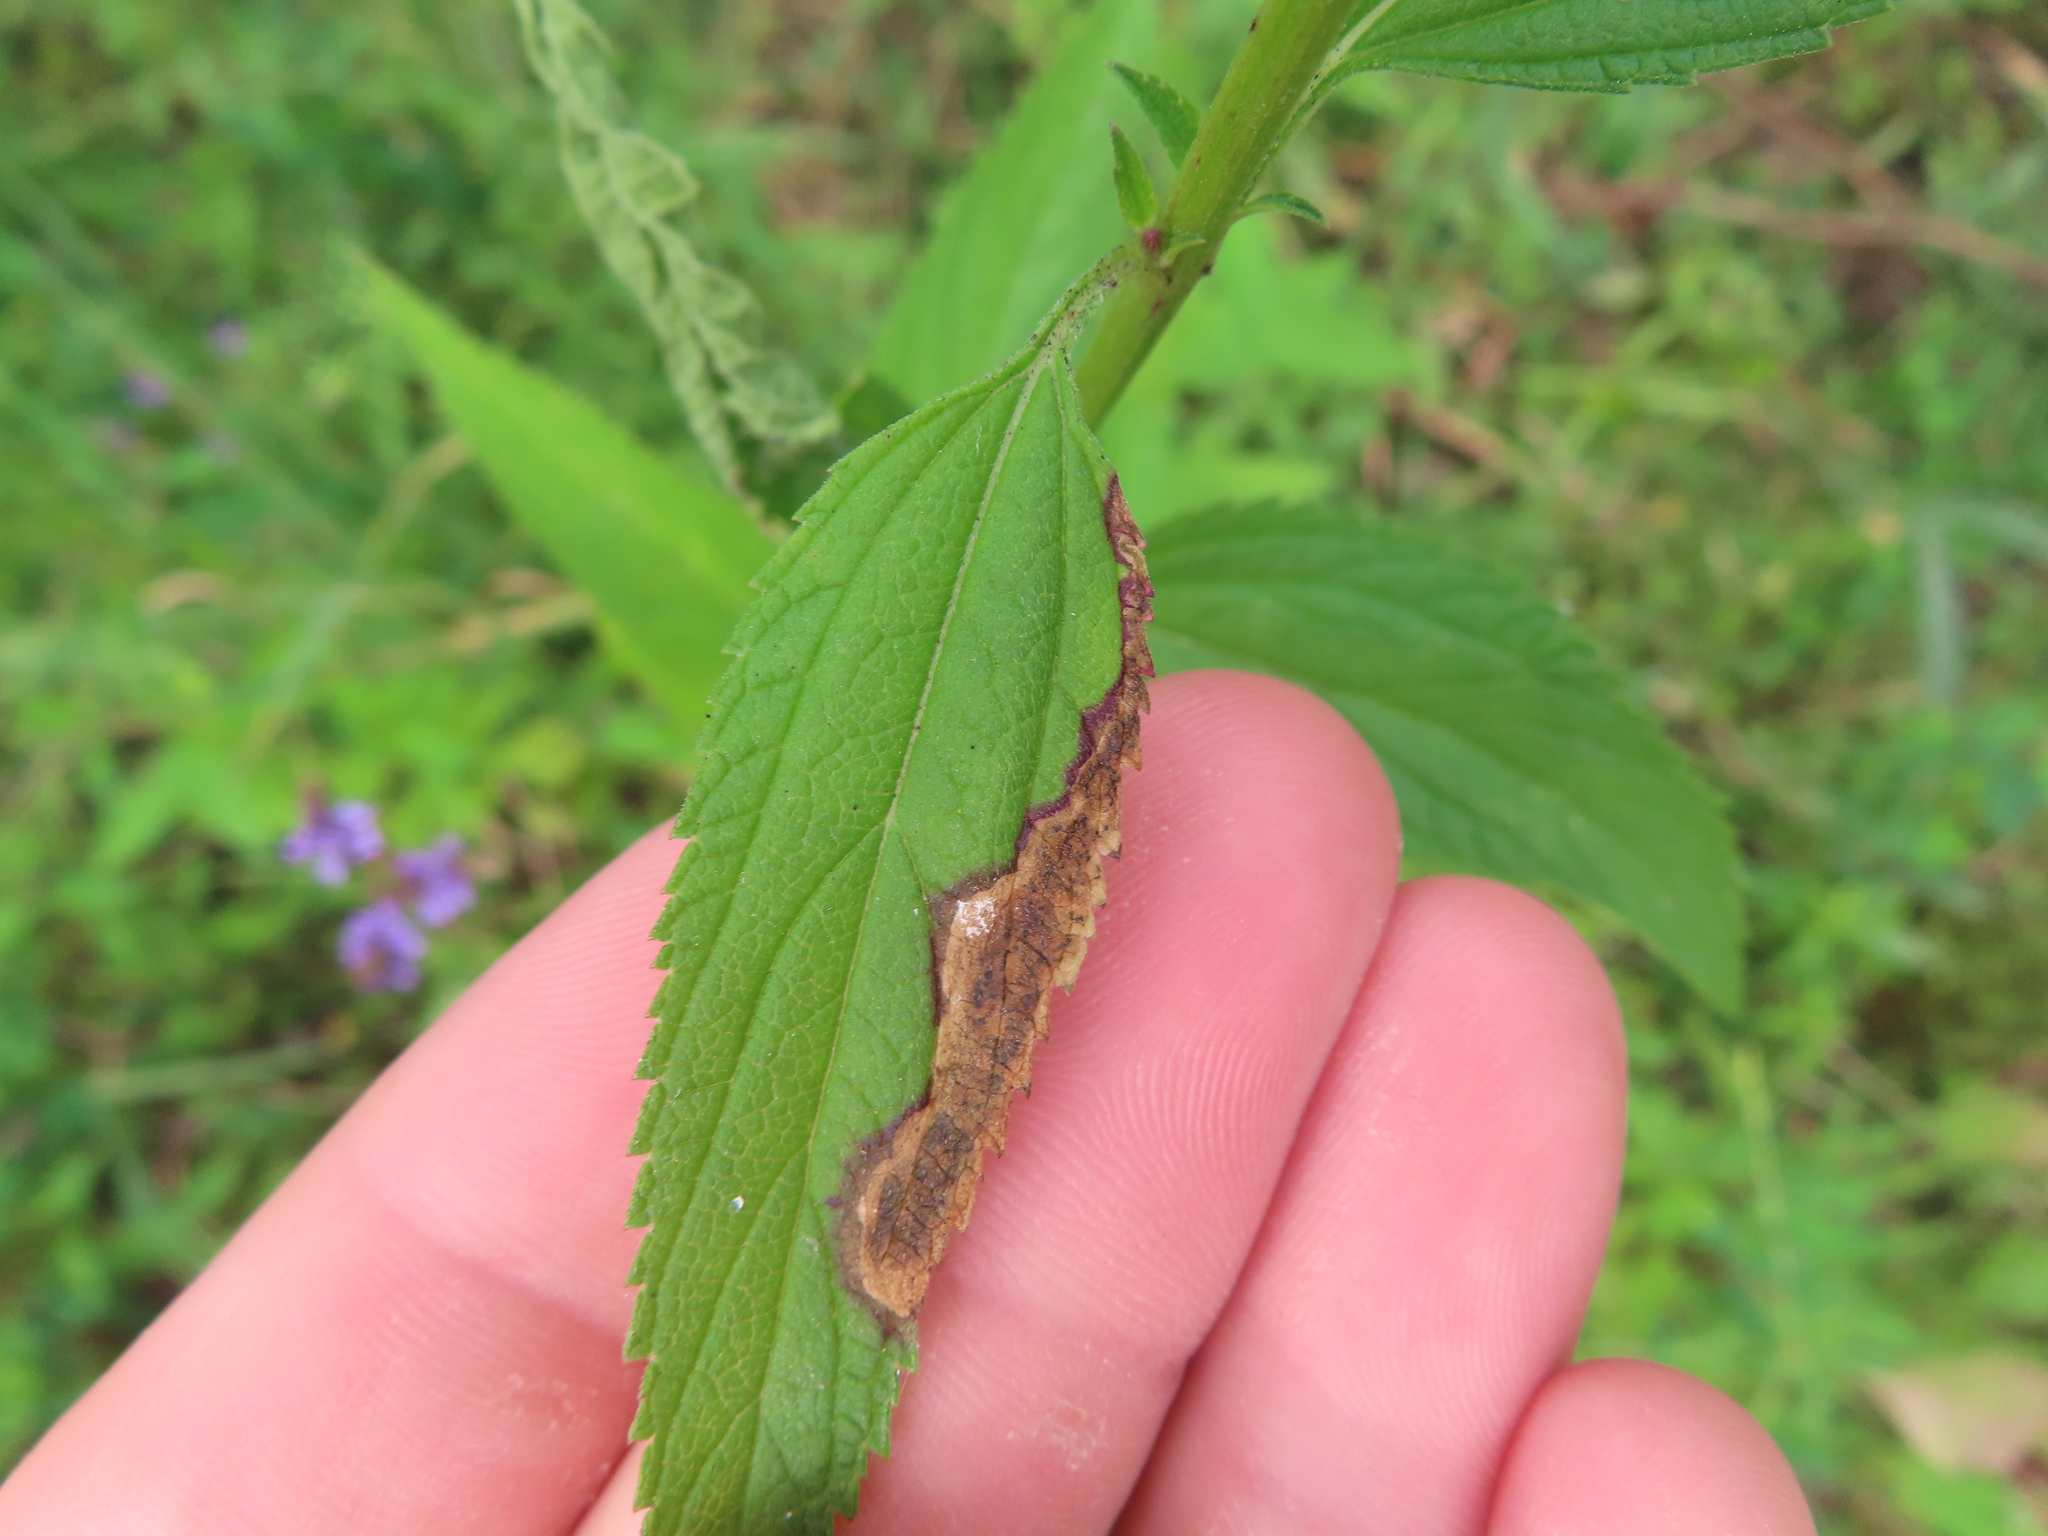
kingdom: Animalia
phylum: Arthropoda
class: Insecta
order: Diptera
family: Agromyzidae
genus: Calycomyza
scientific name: Calycomyza verbenae
